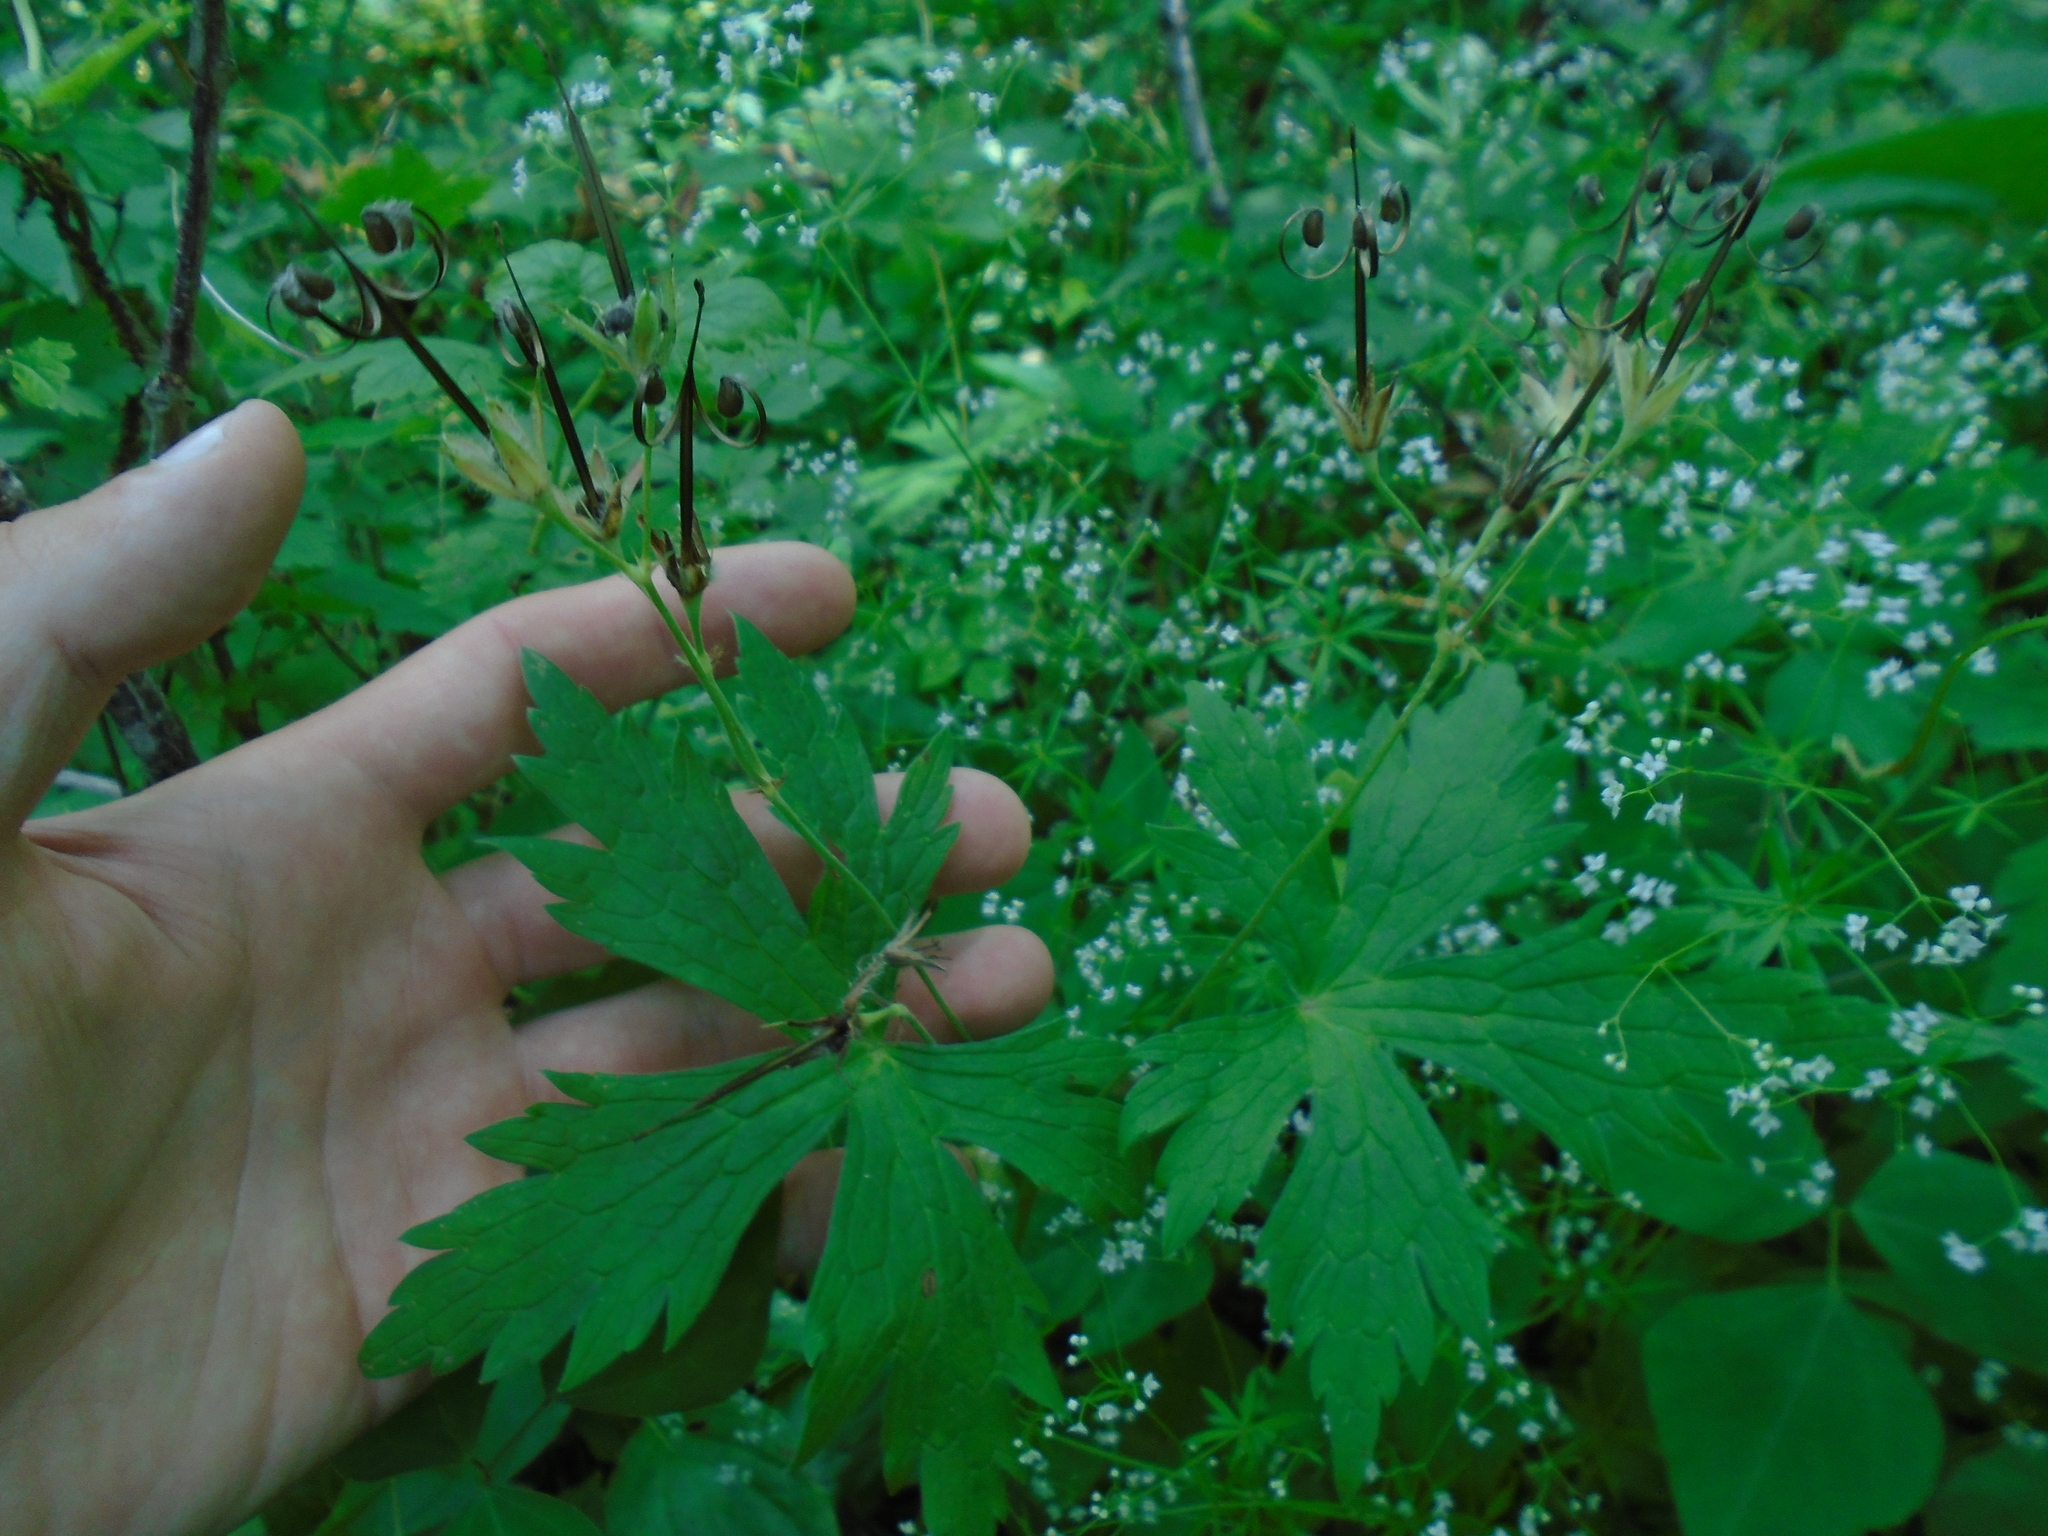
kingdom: Plantae
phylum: Tracheophyta
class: Magnoliopsida
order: Geraniales
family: Geraniaceae
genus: Geranium
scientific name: Geranium maculatum
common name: Spotted geranium
